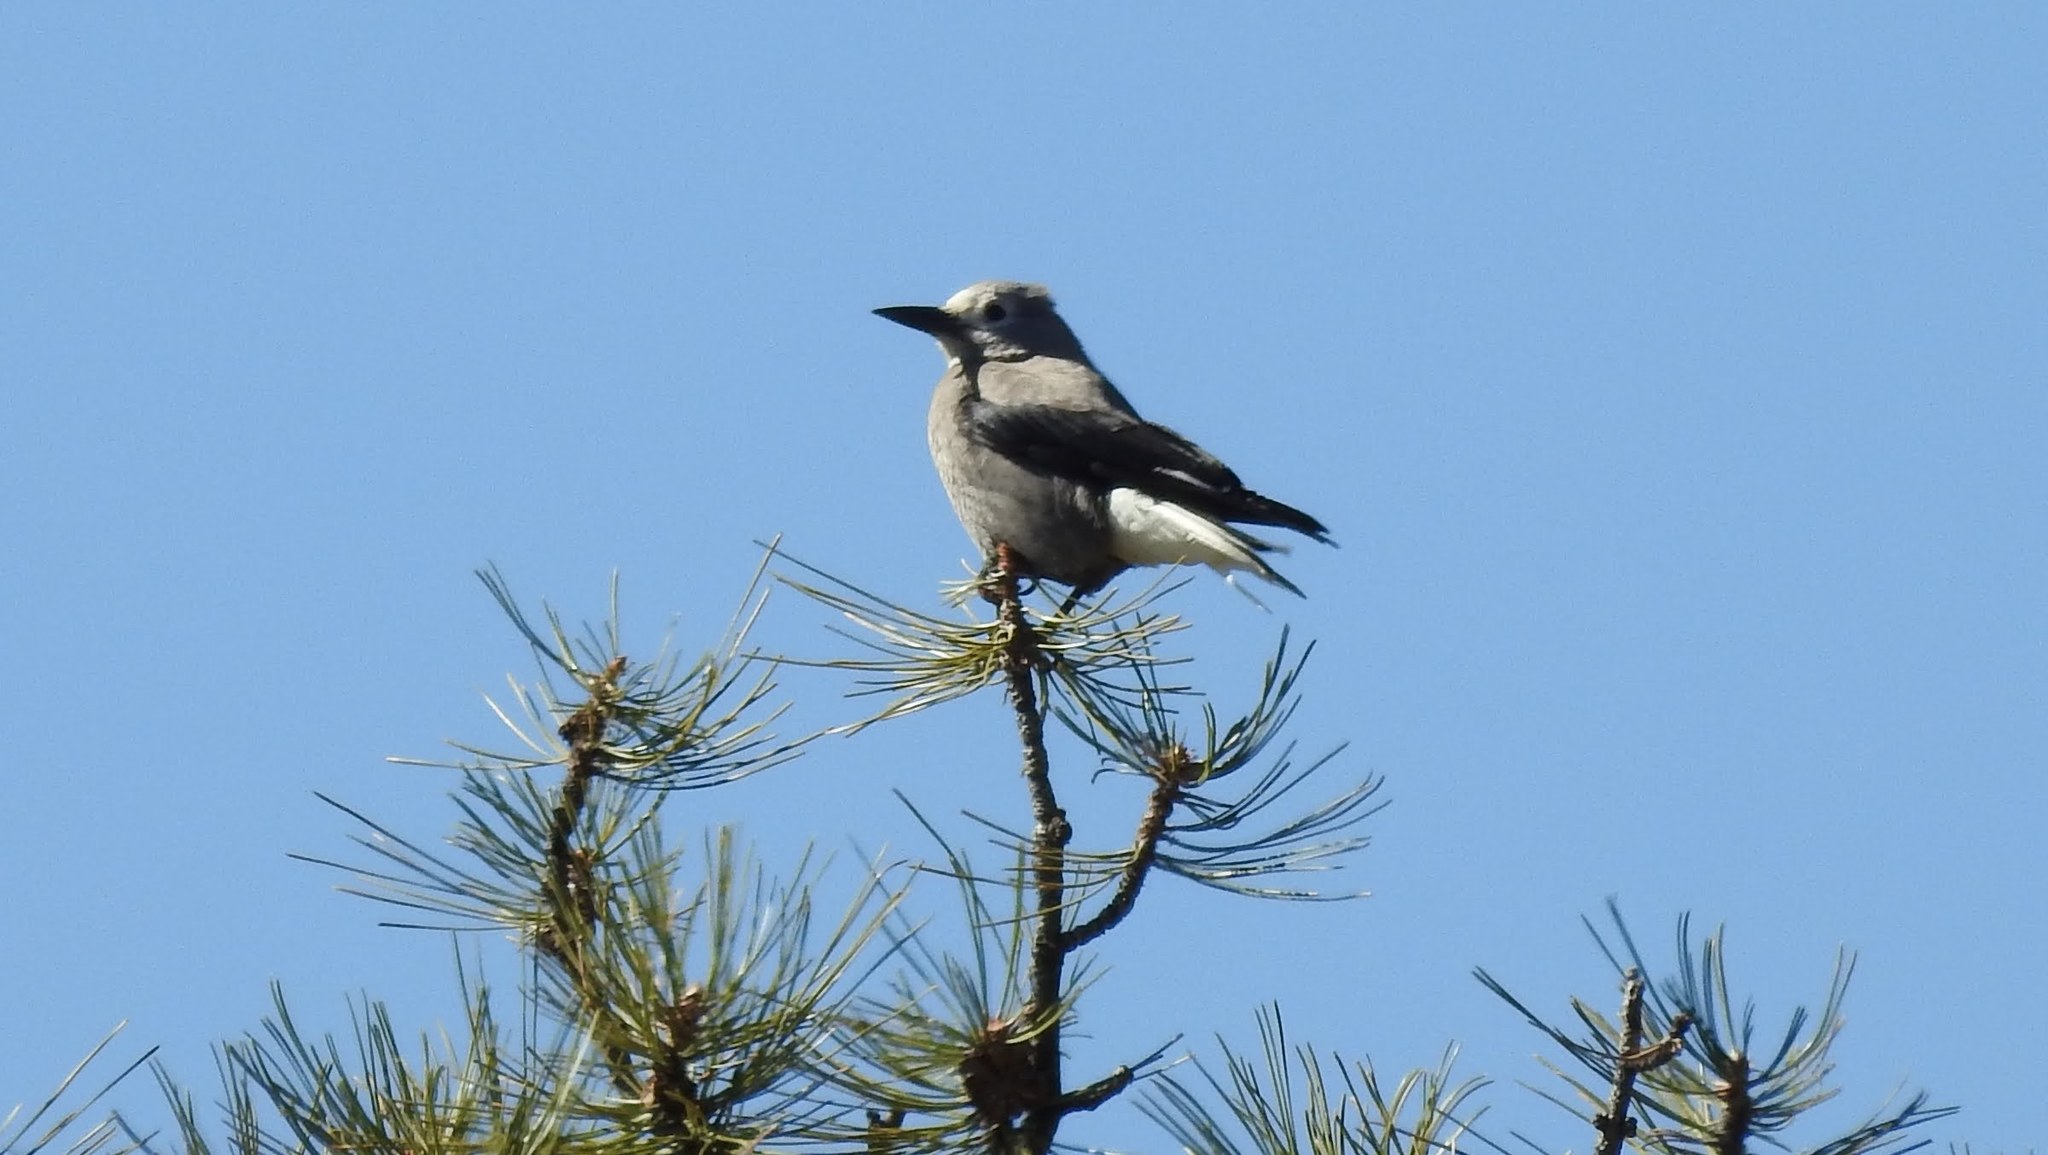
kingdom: Animalia
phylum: Chordata
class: Aves
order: Passeriformes
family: Corvidae
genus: Nucifraga
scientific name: Nucifraga columbiana
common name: Clark's nutcracker
